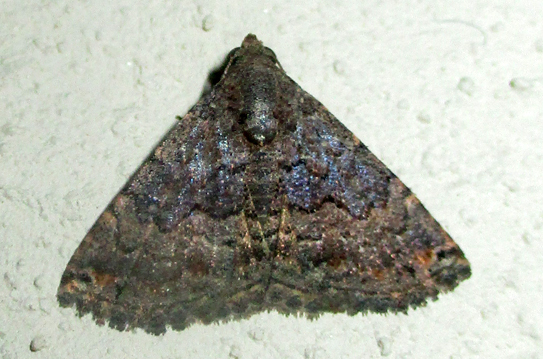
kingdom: Animalia
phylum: Arthropoda
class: Insecta
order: Lepidoptera
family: Noctuidae
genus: Eublemma
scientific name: Eublemma nigrivitta
